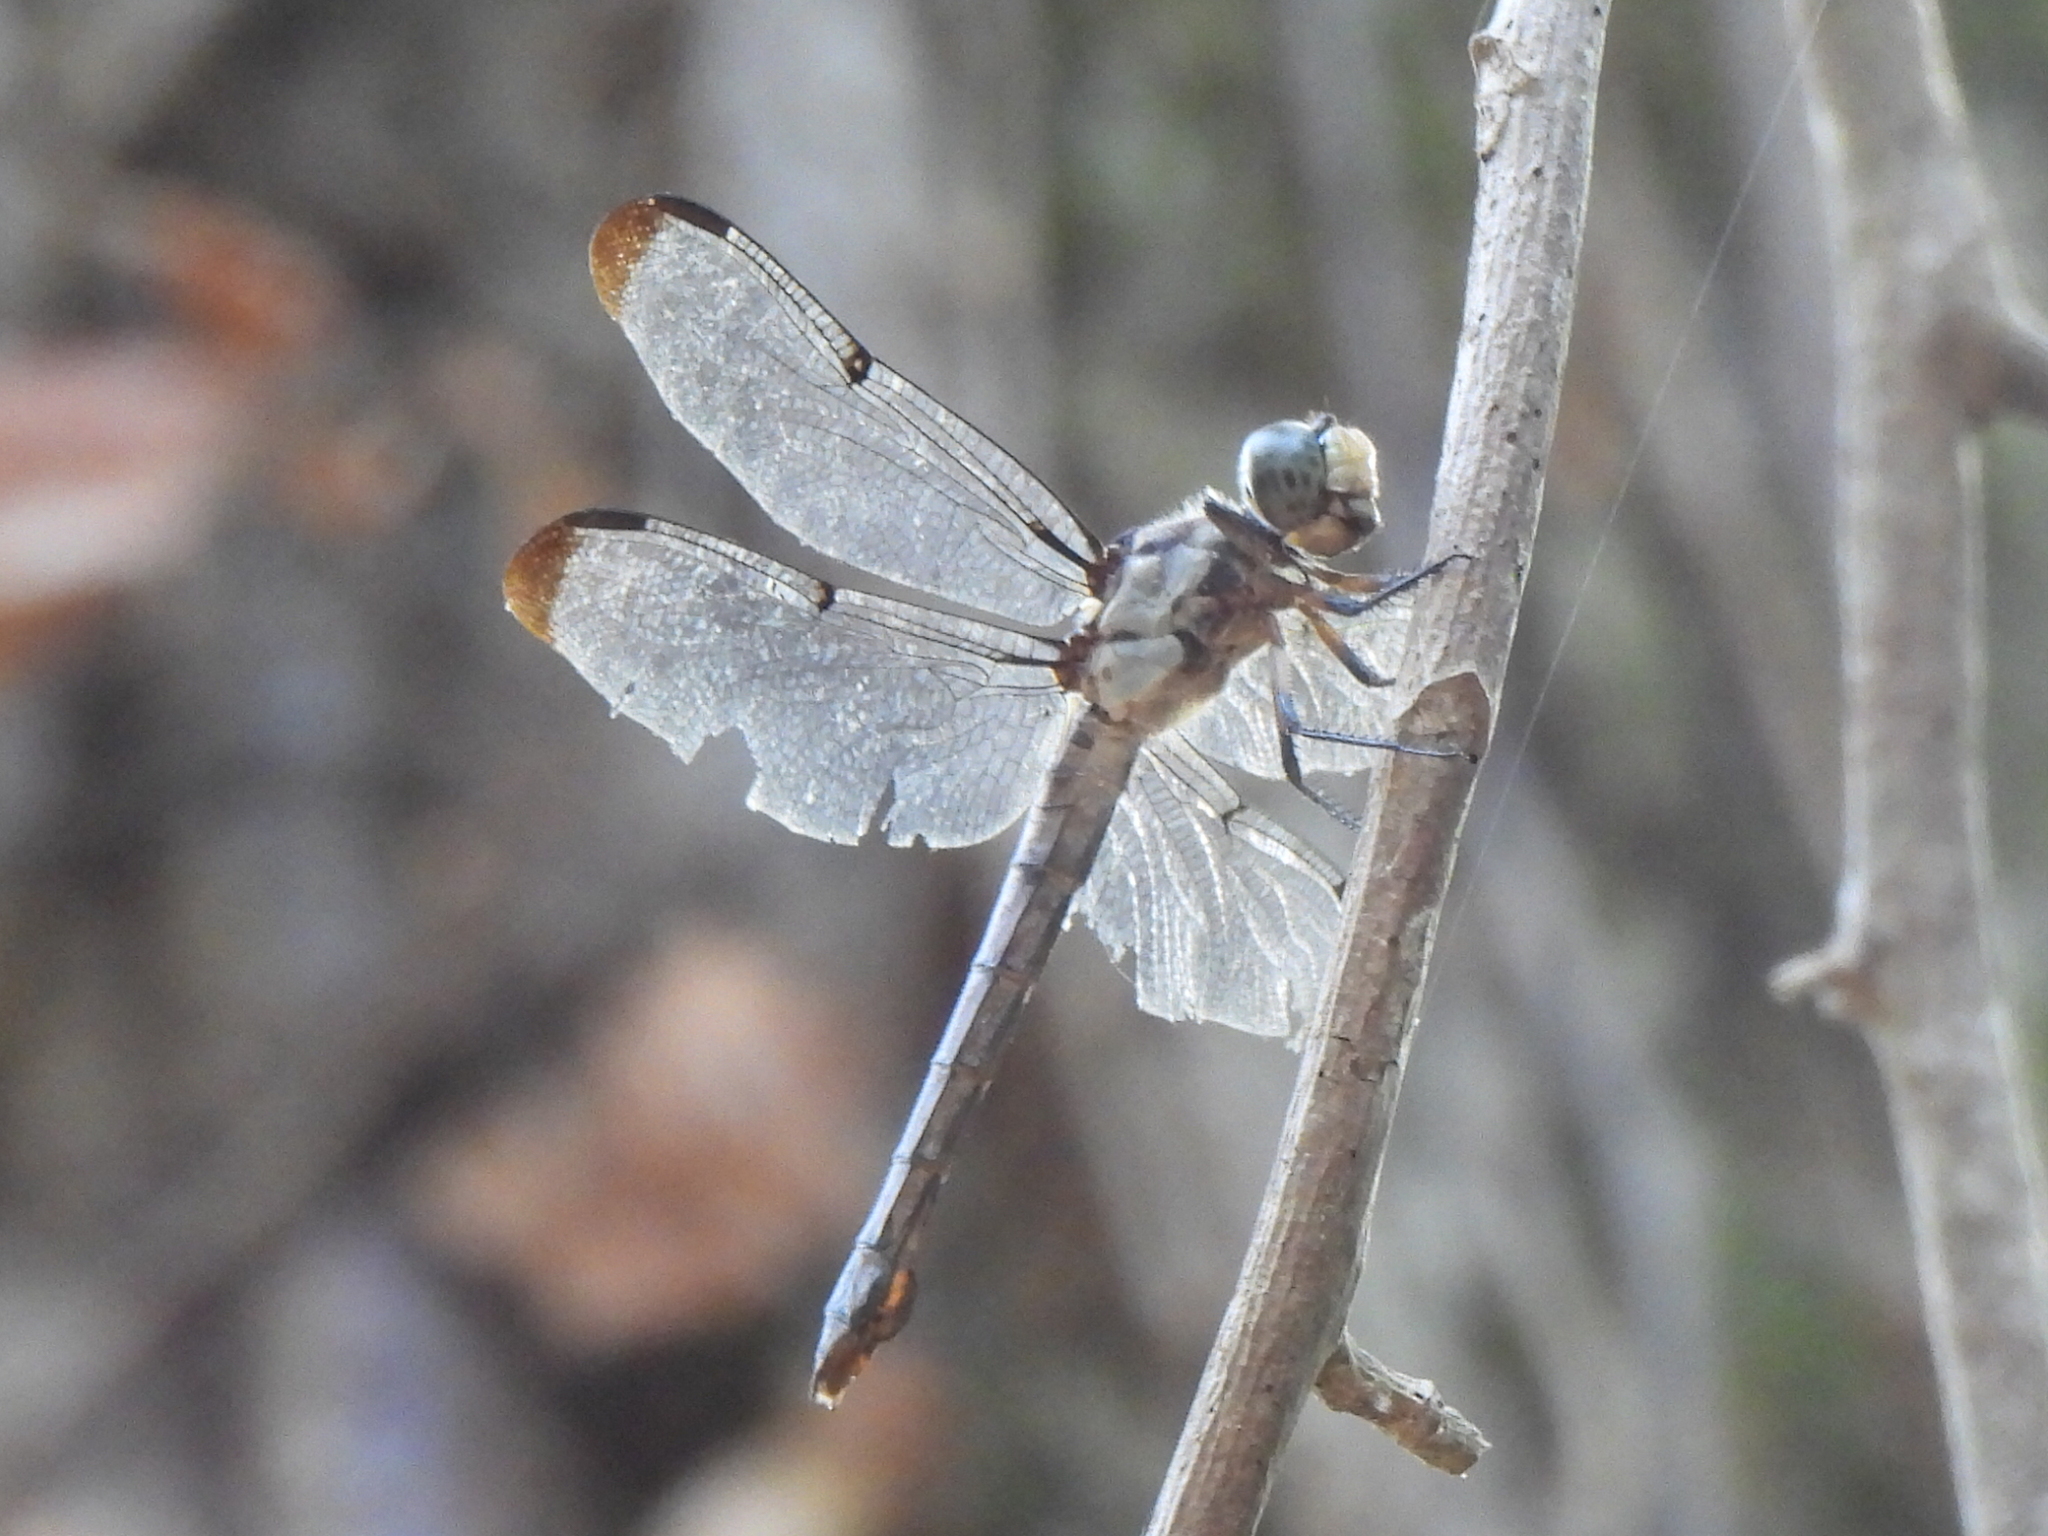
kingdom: Animalia
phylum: Arthropoda
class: Insecta
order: Odonata
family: Libellulidae
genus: Libellula
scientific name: Libellula vibrans
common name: Great blue skimmer
